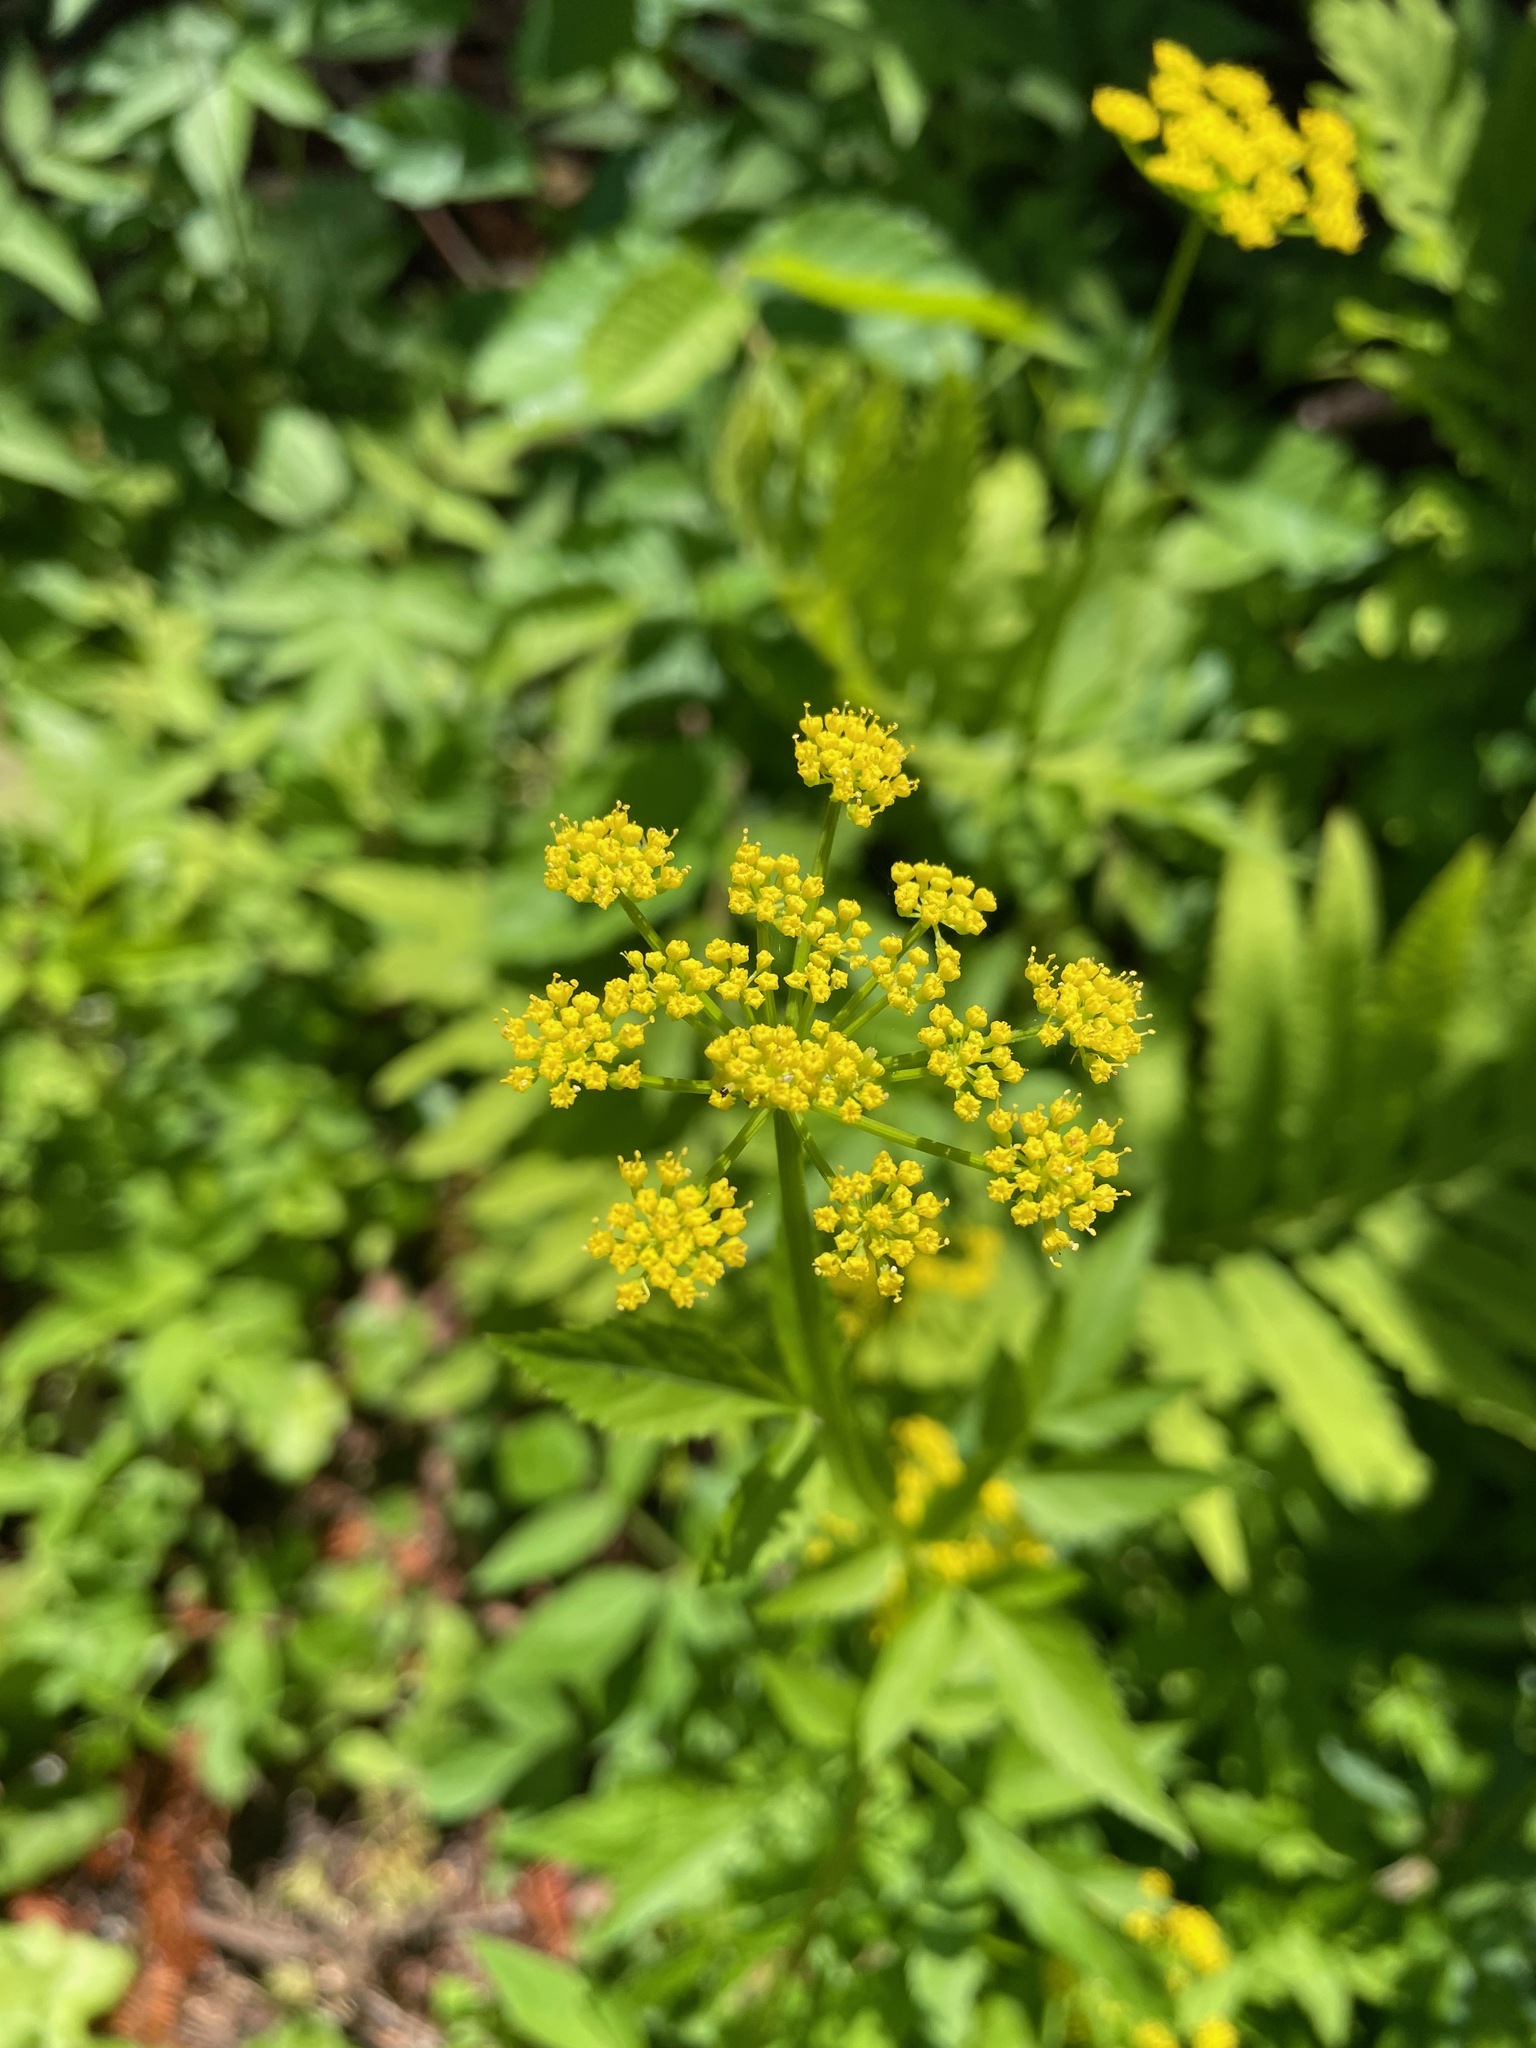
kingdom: Plantae
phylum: Tracheophyta
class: Magnoliopsida
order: Apiales
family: Apiaceae
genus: Zizia
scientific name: Zizia aurea
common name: Golden alexanders
